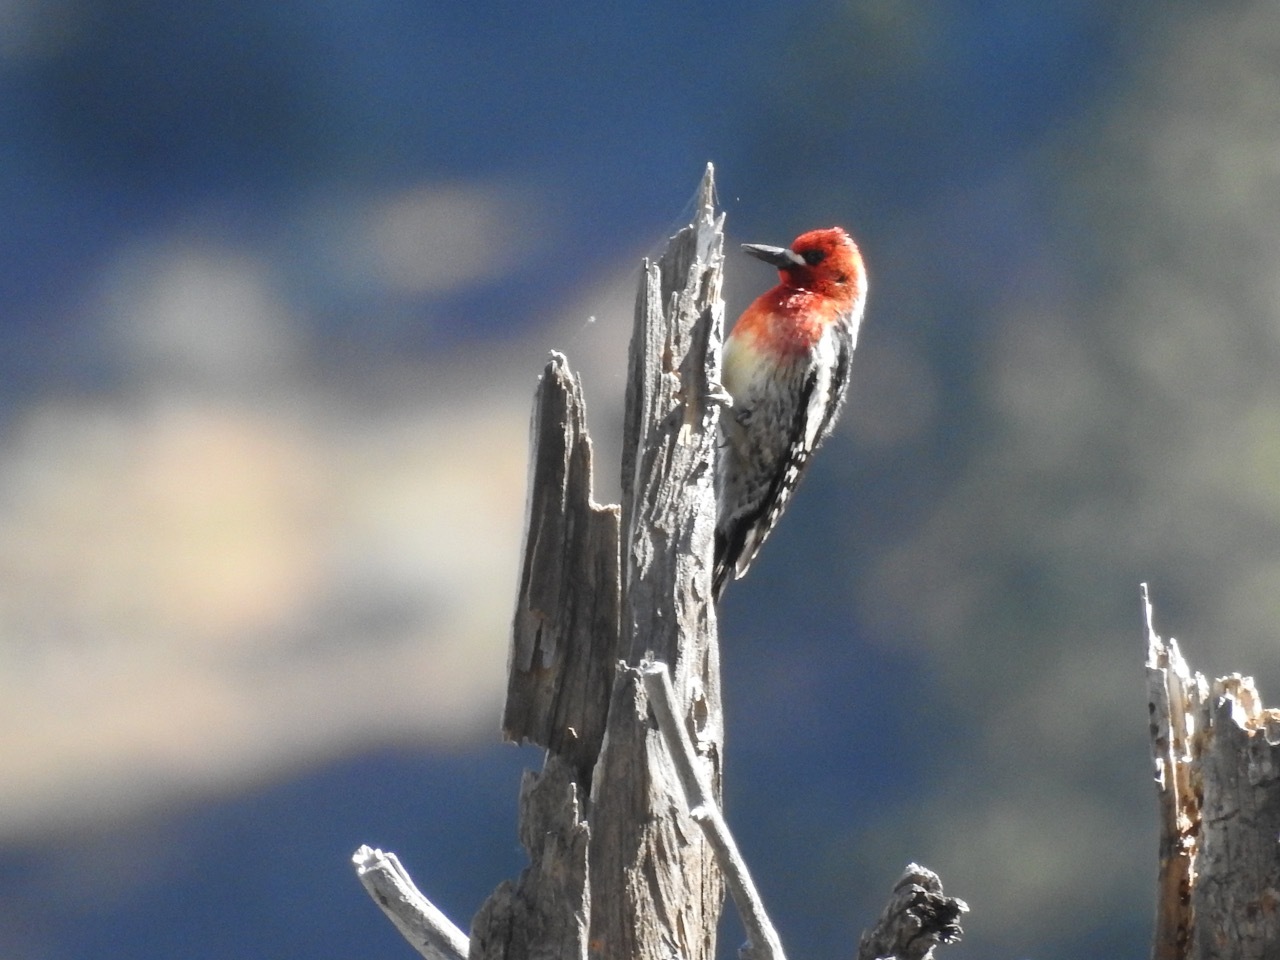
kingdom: Animalia
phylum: Chordata
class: Aves
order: Piciformes
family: Picidae
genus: Sphyrapicus
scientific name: Sphyrapicus ruber
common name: Red-breasted sapsucker
